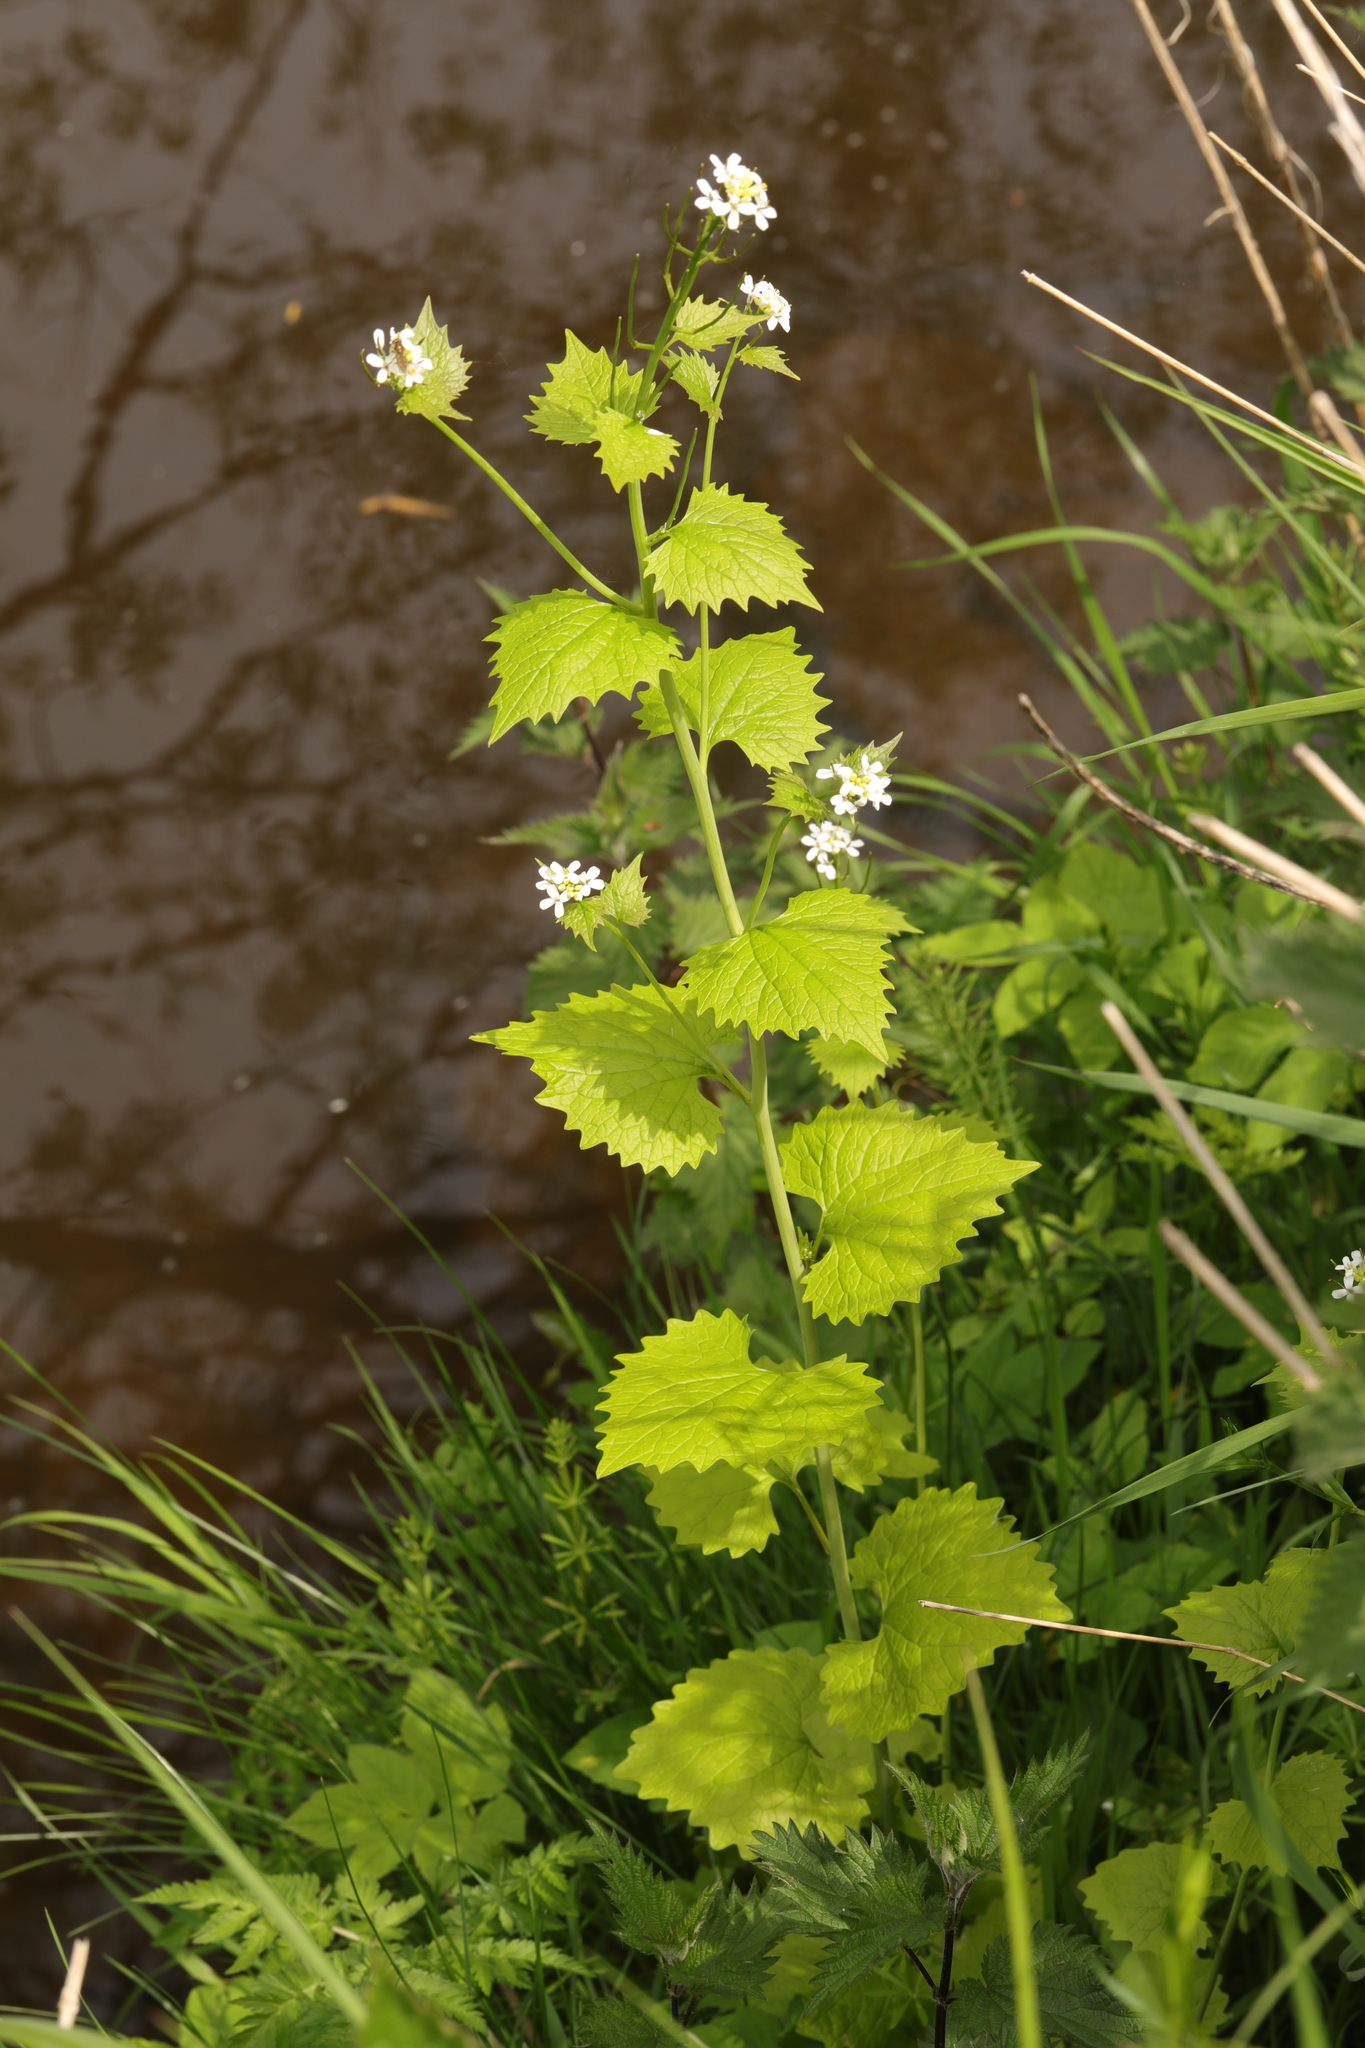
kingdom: Plantae
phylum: Tracheophyta
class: Magnoliopsida
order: Brassicales
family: Brassicaceae
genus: Alliaria
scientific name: Alliaria petiolata
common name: Garlic mustard
